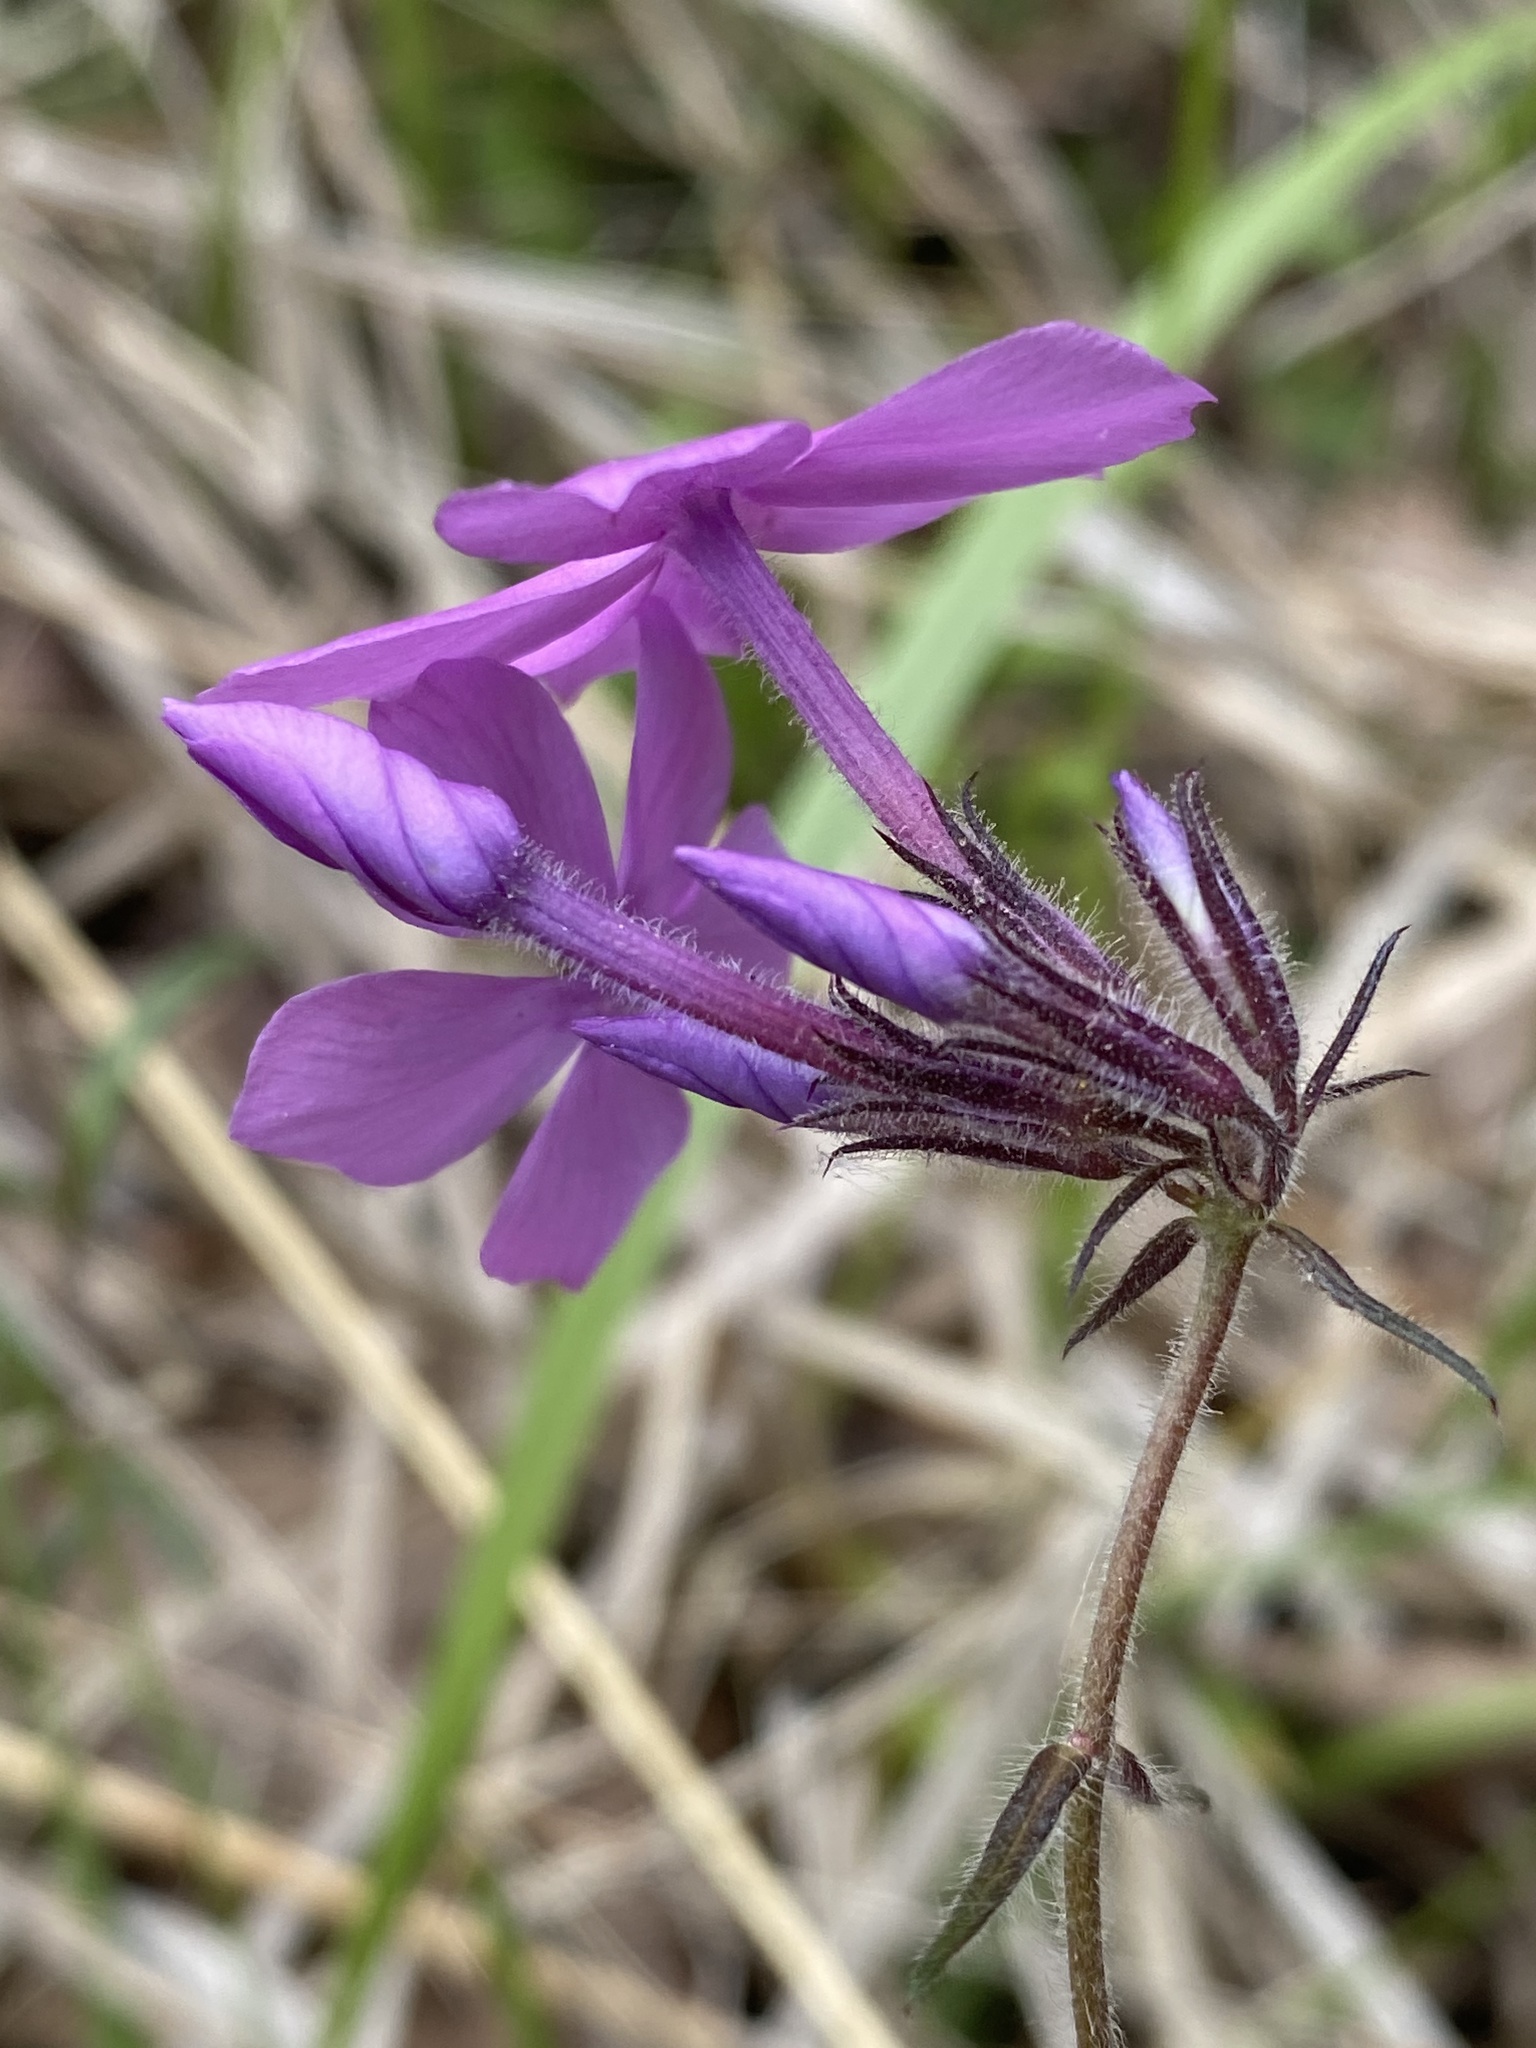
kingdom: Plantae
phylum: Tracheophyta
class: Magnoliopsida
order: Ericales
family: Polemoniaceae
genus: Phlox
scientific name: Phlox pilosa
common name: Prairie phlox
